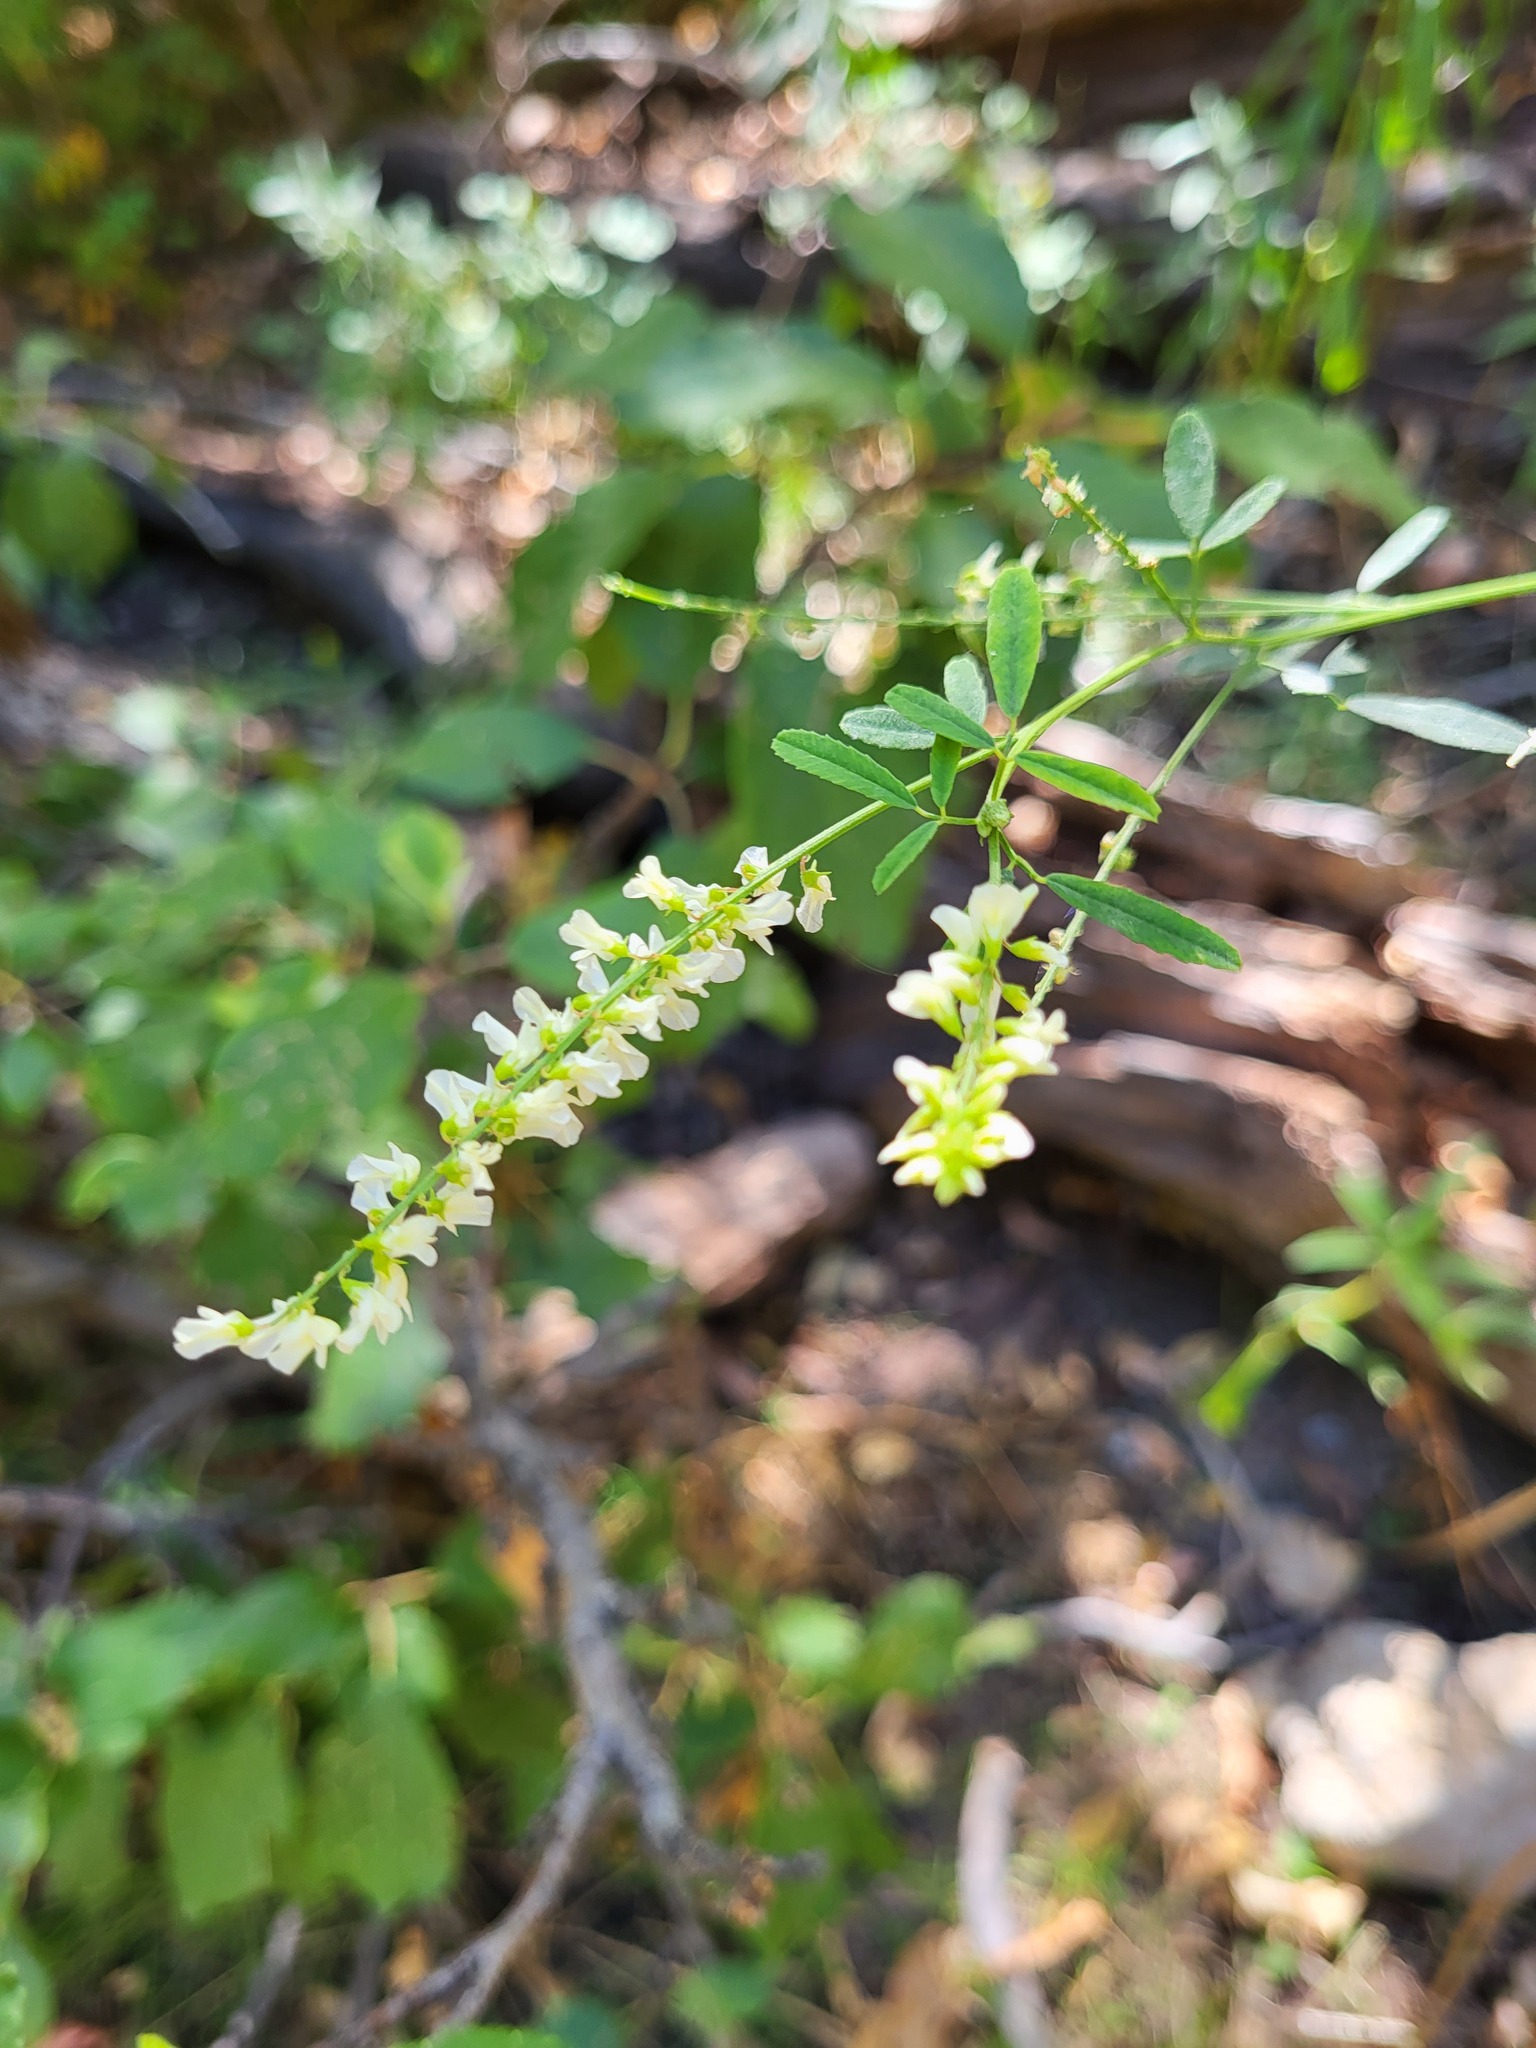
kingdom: Plantae
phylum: Tracheophyta
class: Magnoliopsida
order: Fabales
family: Fabaceae
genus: Melilotus
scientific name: Melilotus albus
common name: White melilot
